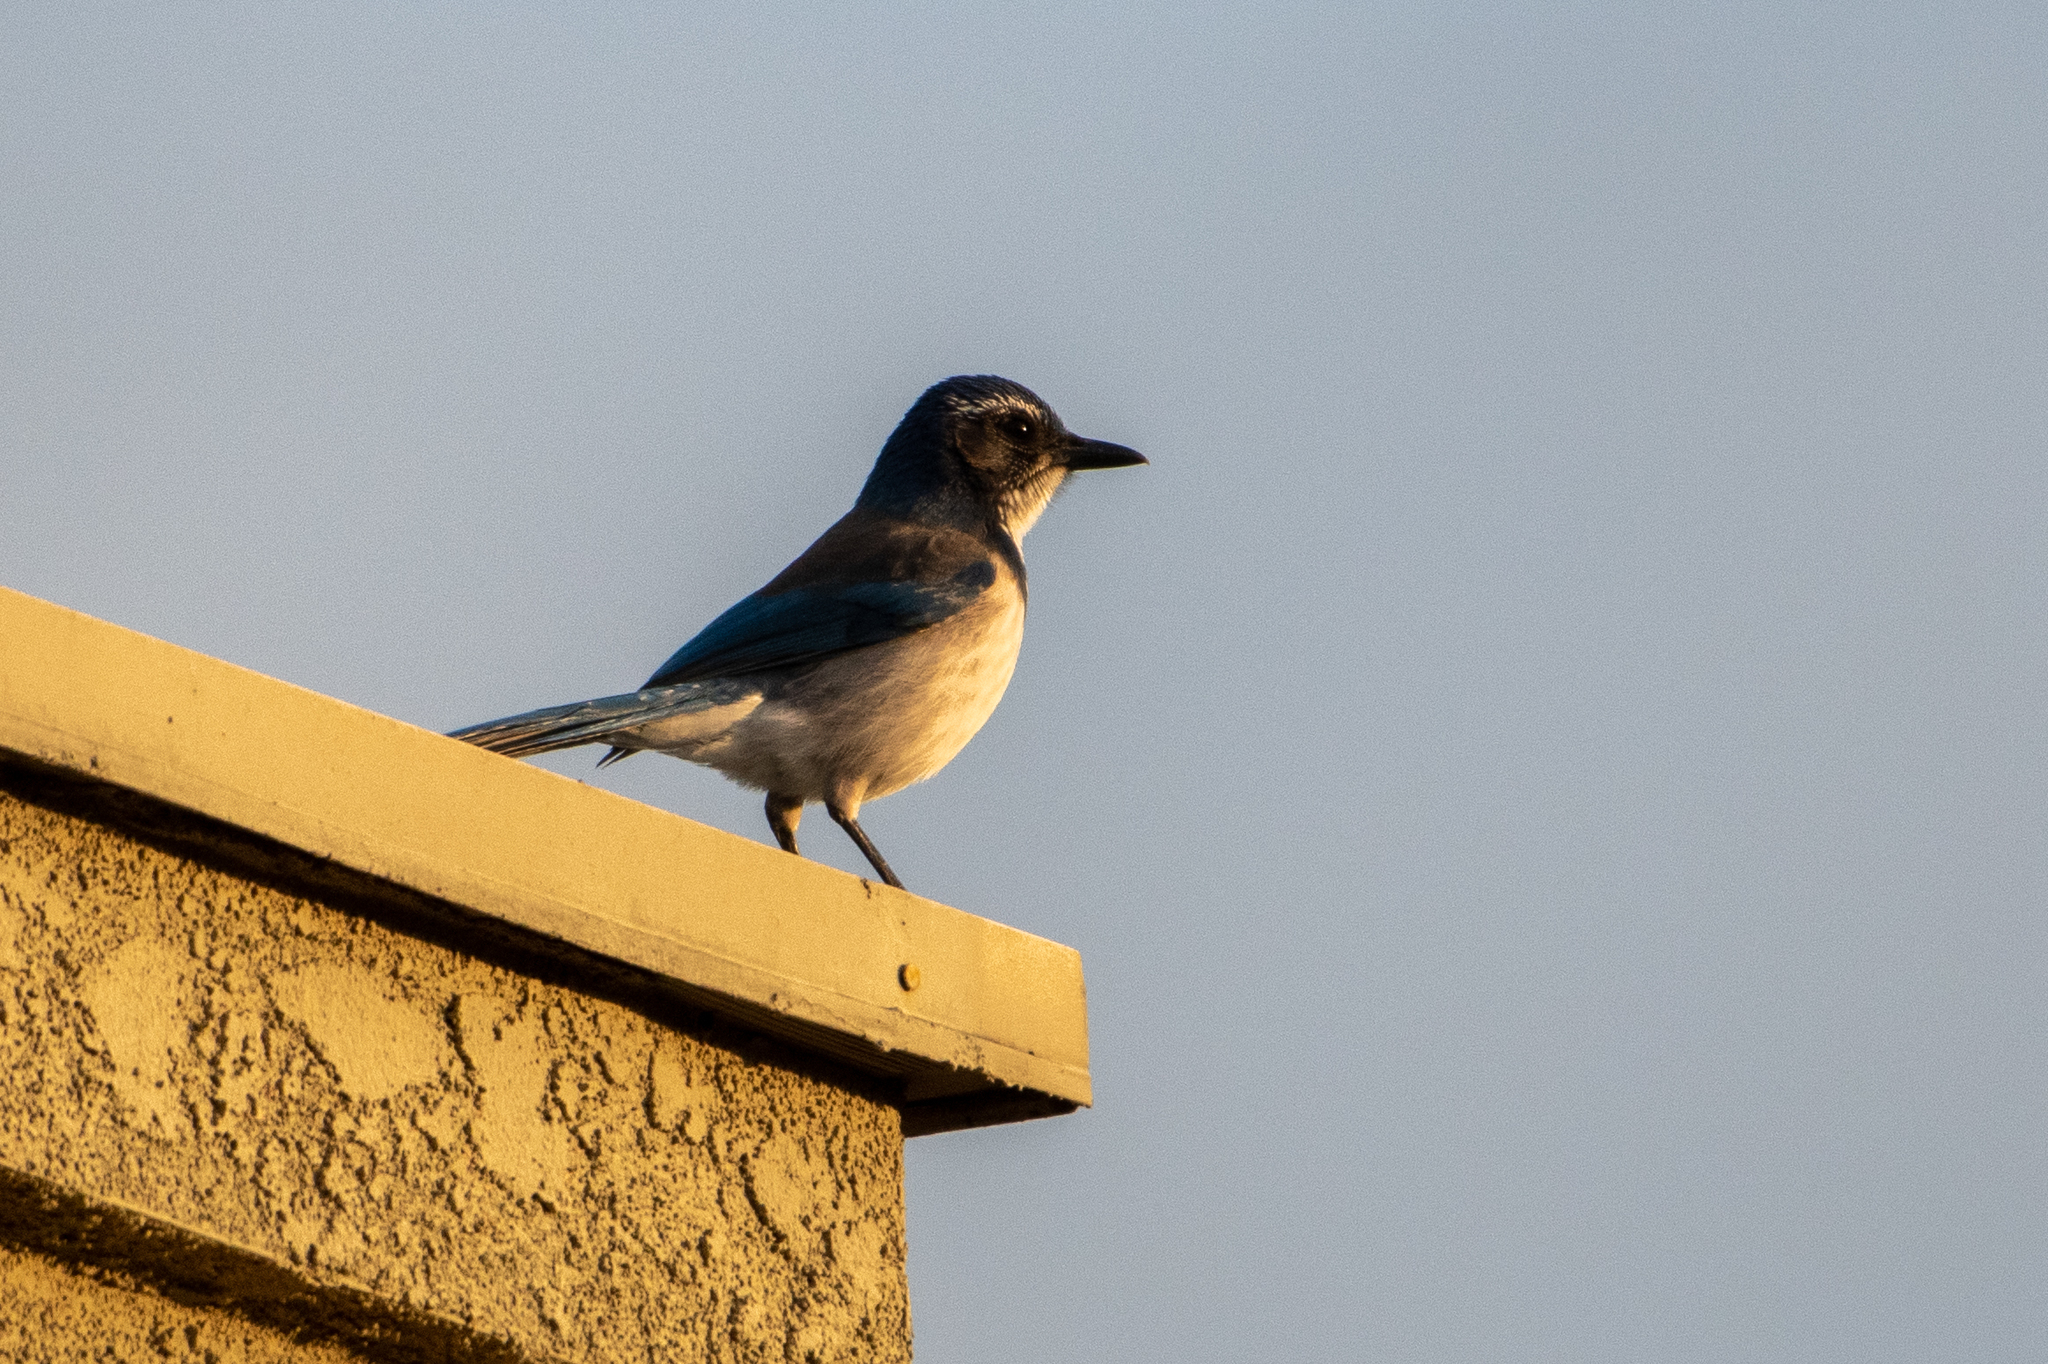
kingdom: Animalia
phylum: Chordata
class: Aves
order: Passeriformes
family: Corvidae
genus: Aphelocoma
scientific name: Aphelocoma californica
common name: California scrub-jay
